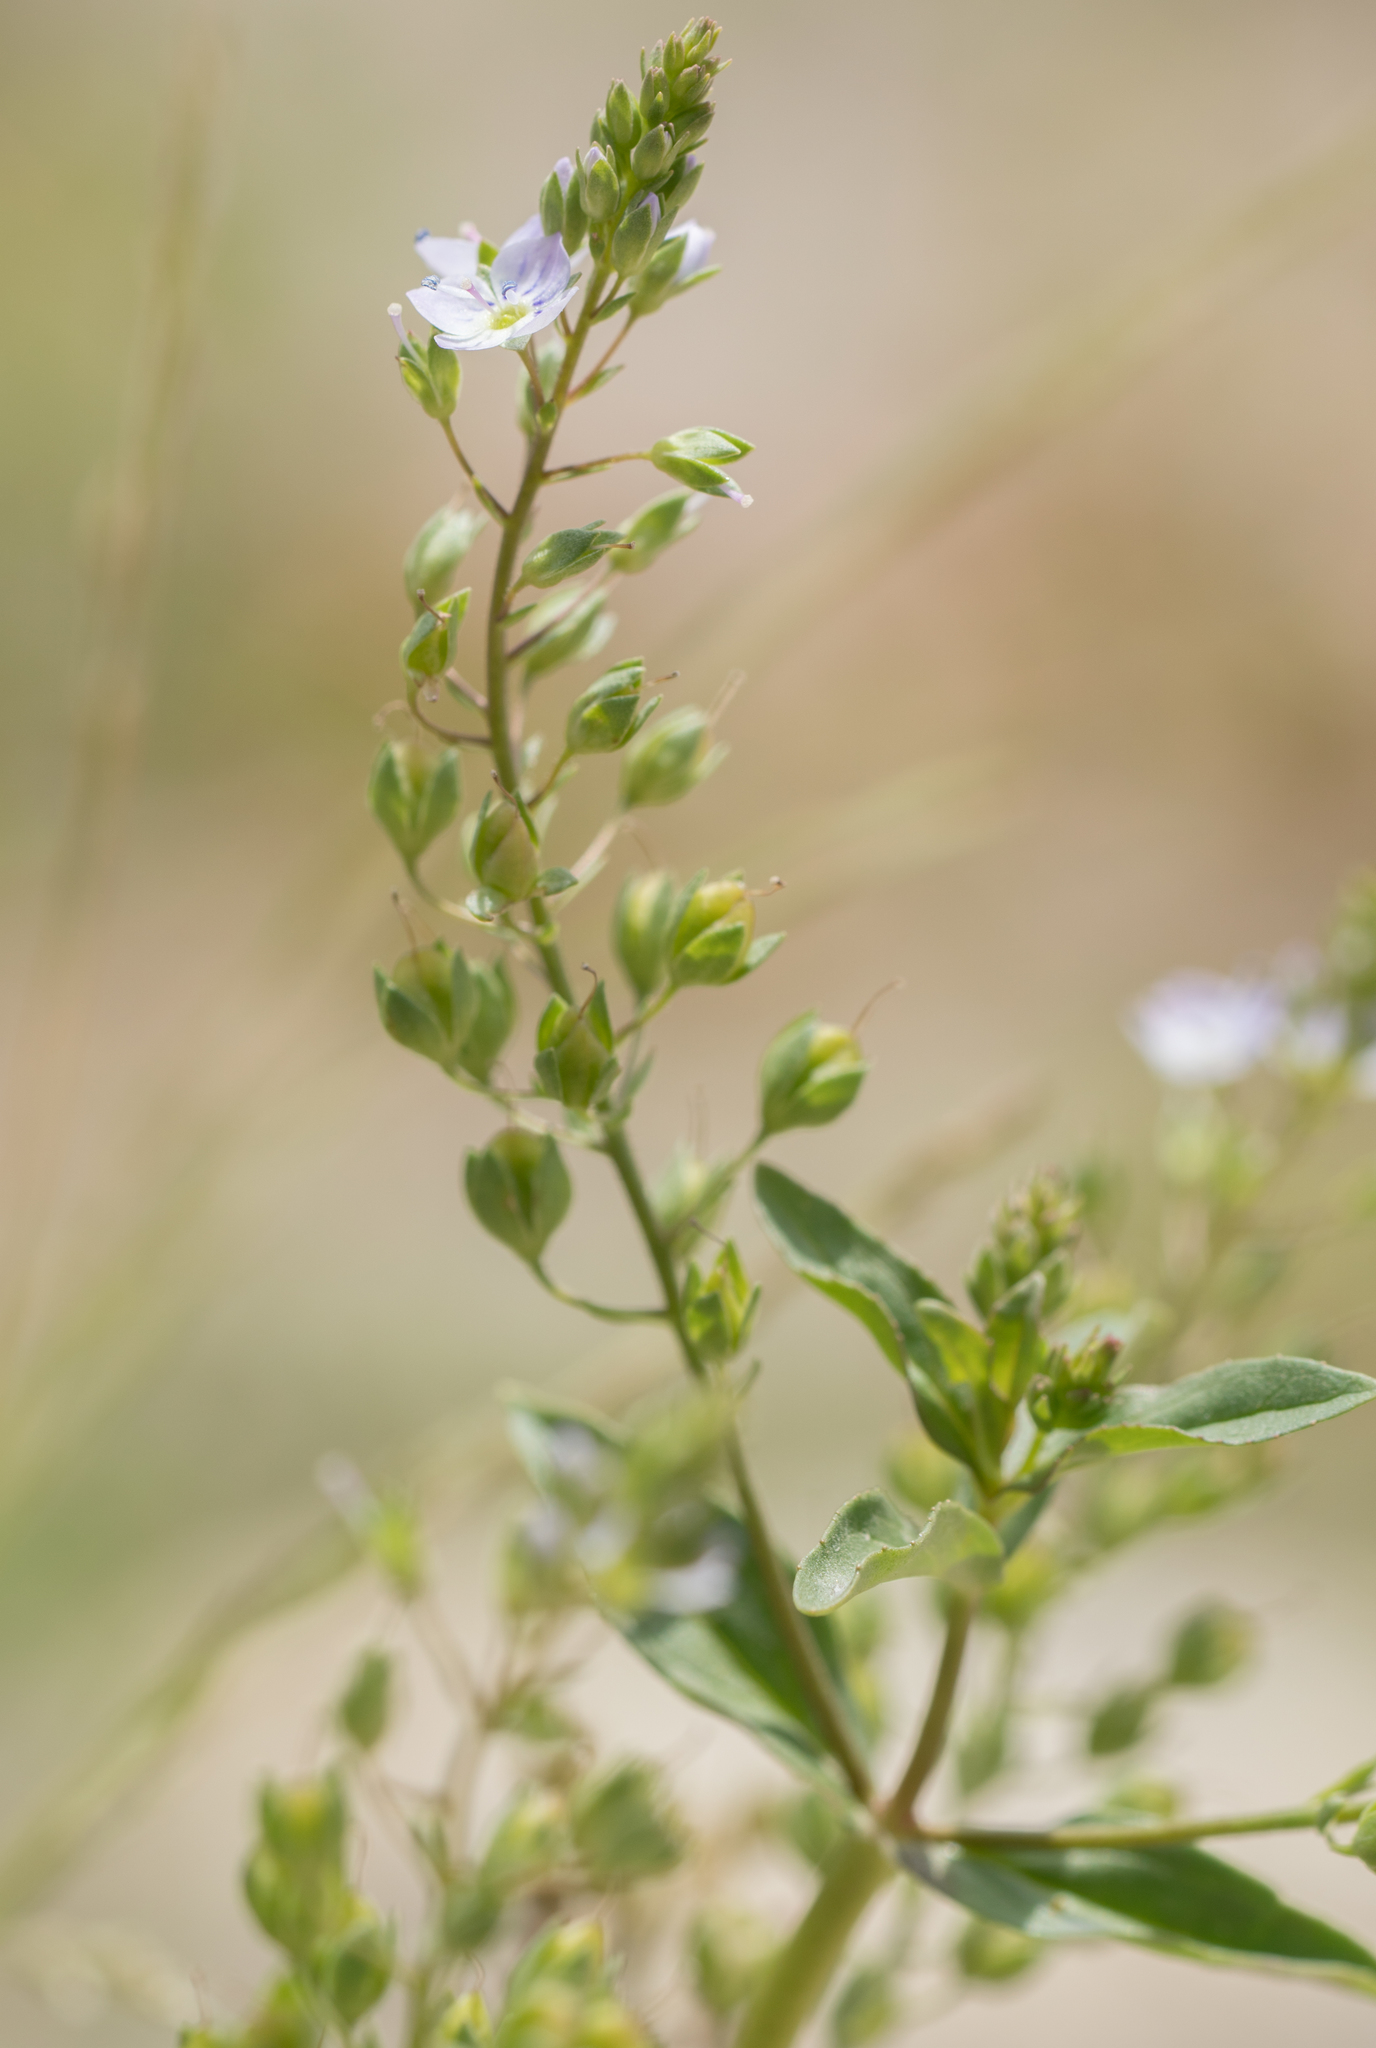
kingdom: Plantae
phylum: Tracheophyta
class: Magnoliopsida
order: Lamiales
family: Plantaginaceae
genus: Veronica
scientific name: Veronica anagallis-aquatica
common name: Water speedwell
